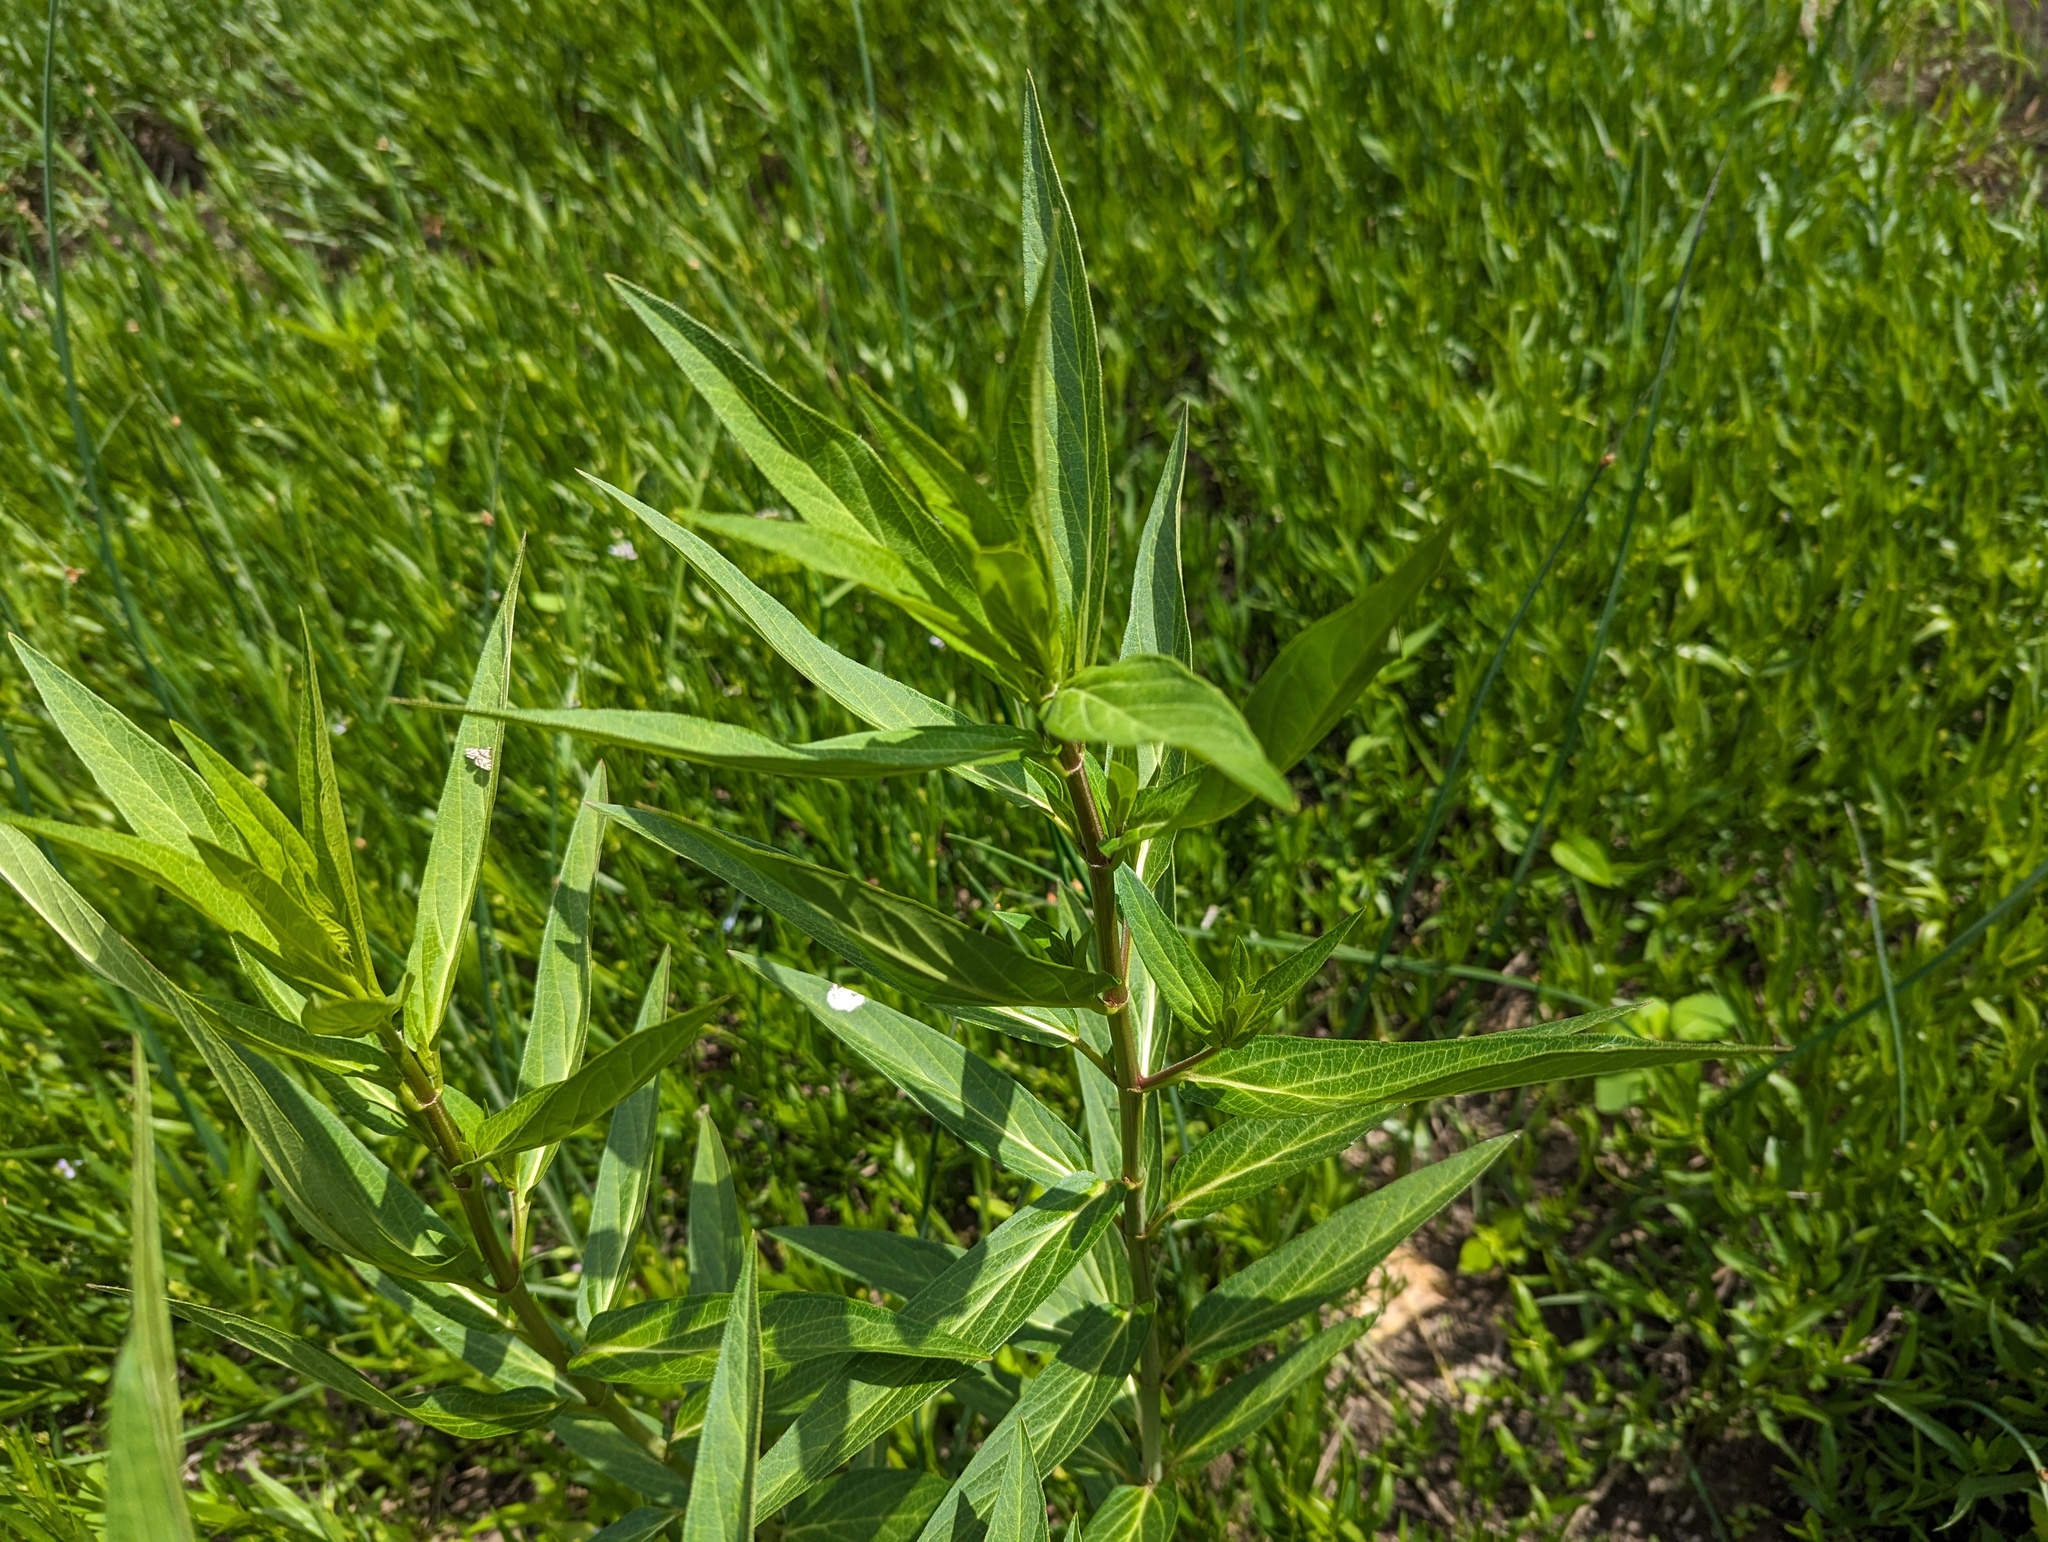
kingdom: Plantae
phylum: Tracheophyta
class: Magnoliopsida
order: Gentianales
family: Apocynaceae
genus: Asclepias
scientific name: Asclepias incarnata
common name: Swamp milkweed
